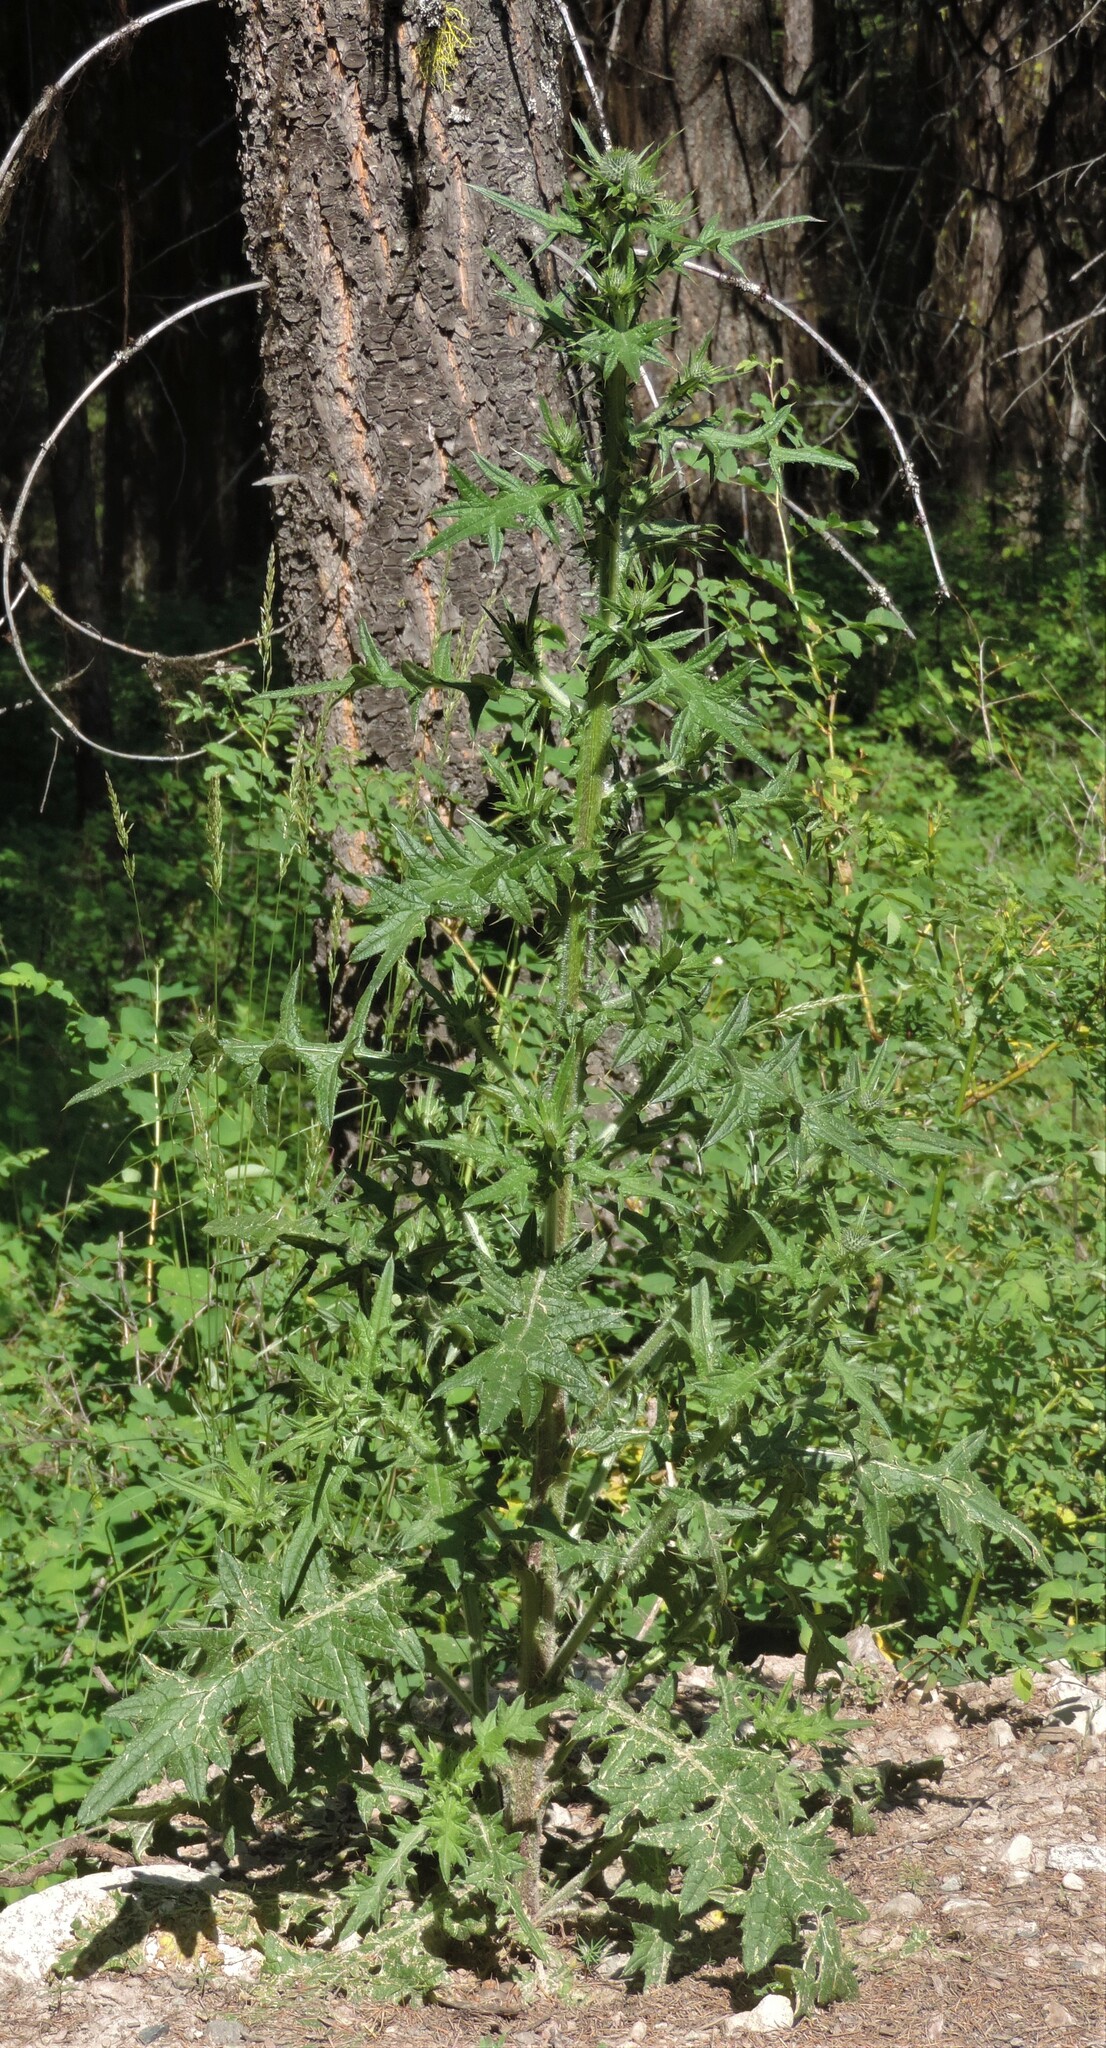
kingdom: Plantae
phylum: Tracheophyta
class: Magnoliopsida
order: Asterales
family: Asteraceae
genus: Cirsium
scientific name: Cirsium vulgare
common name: Bull thistle
